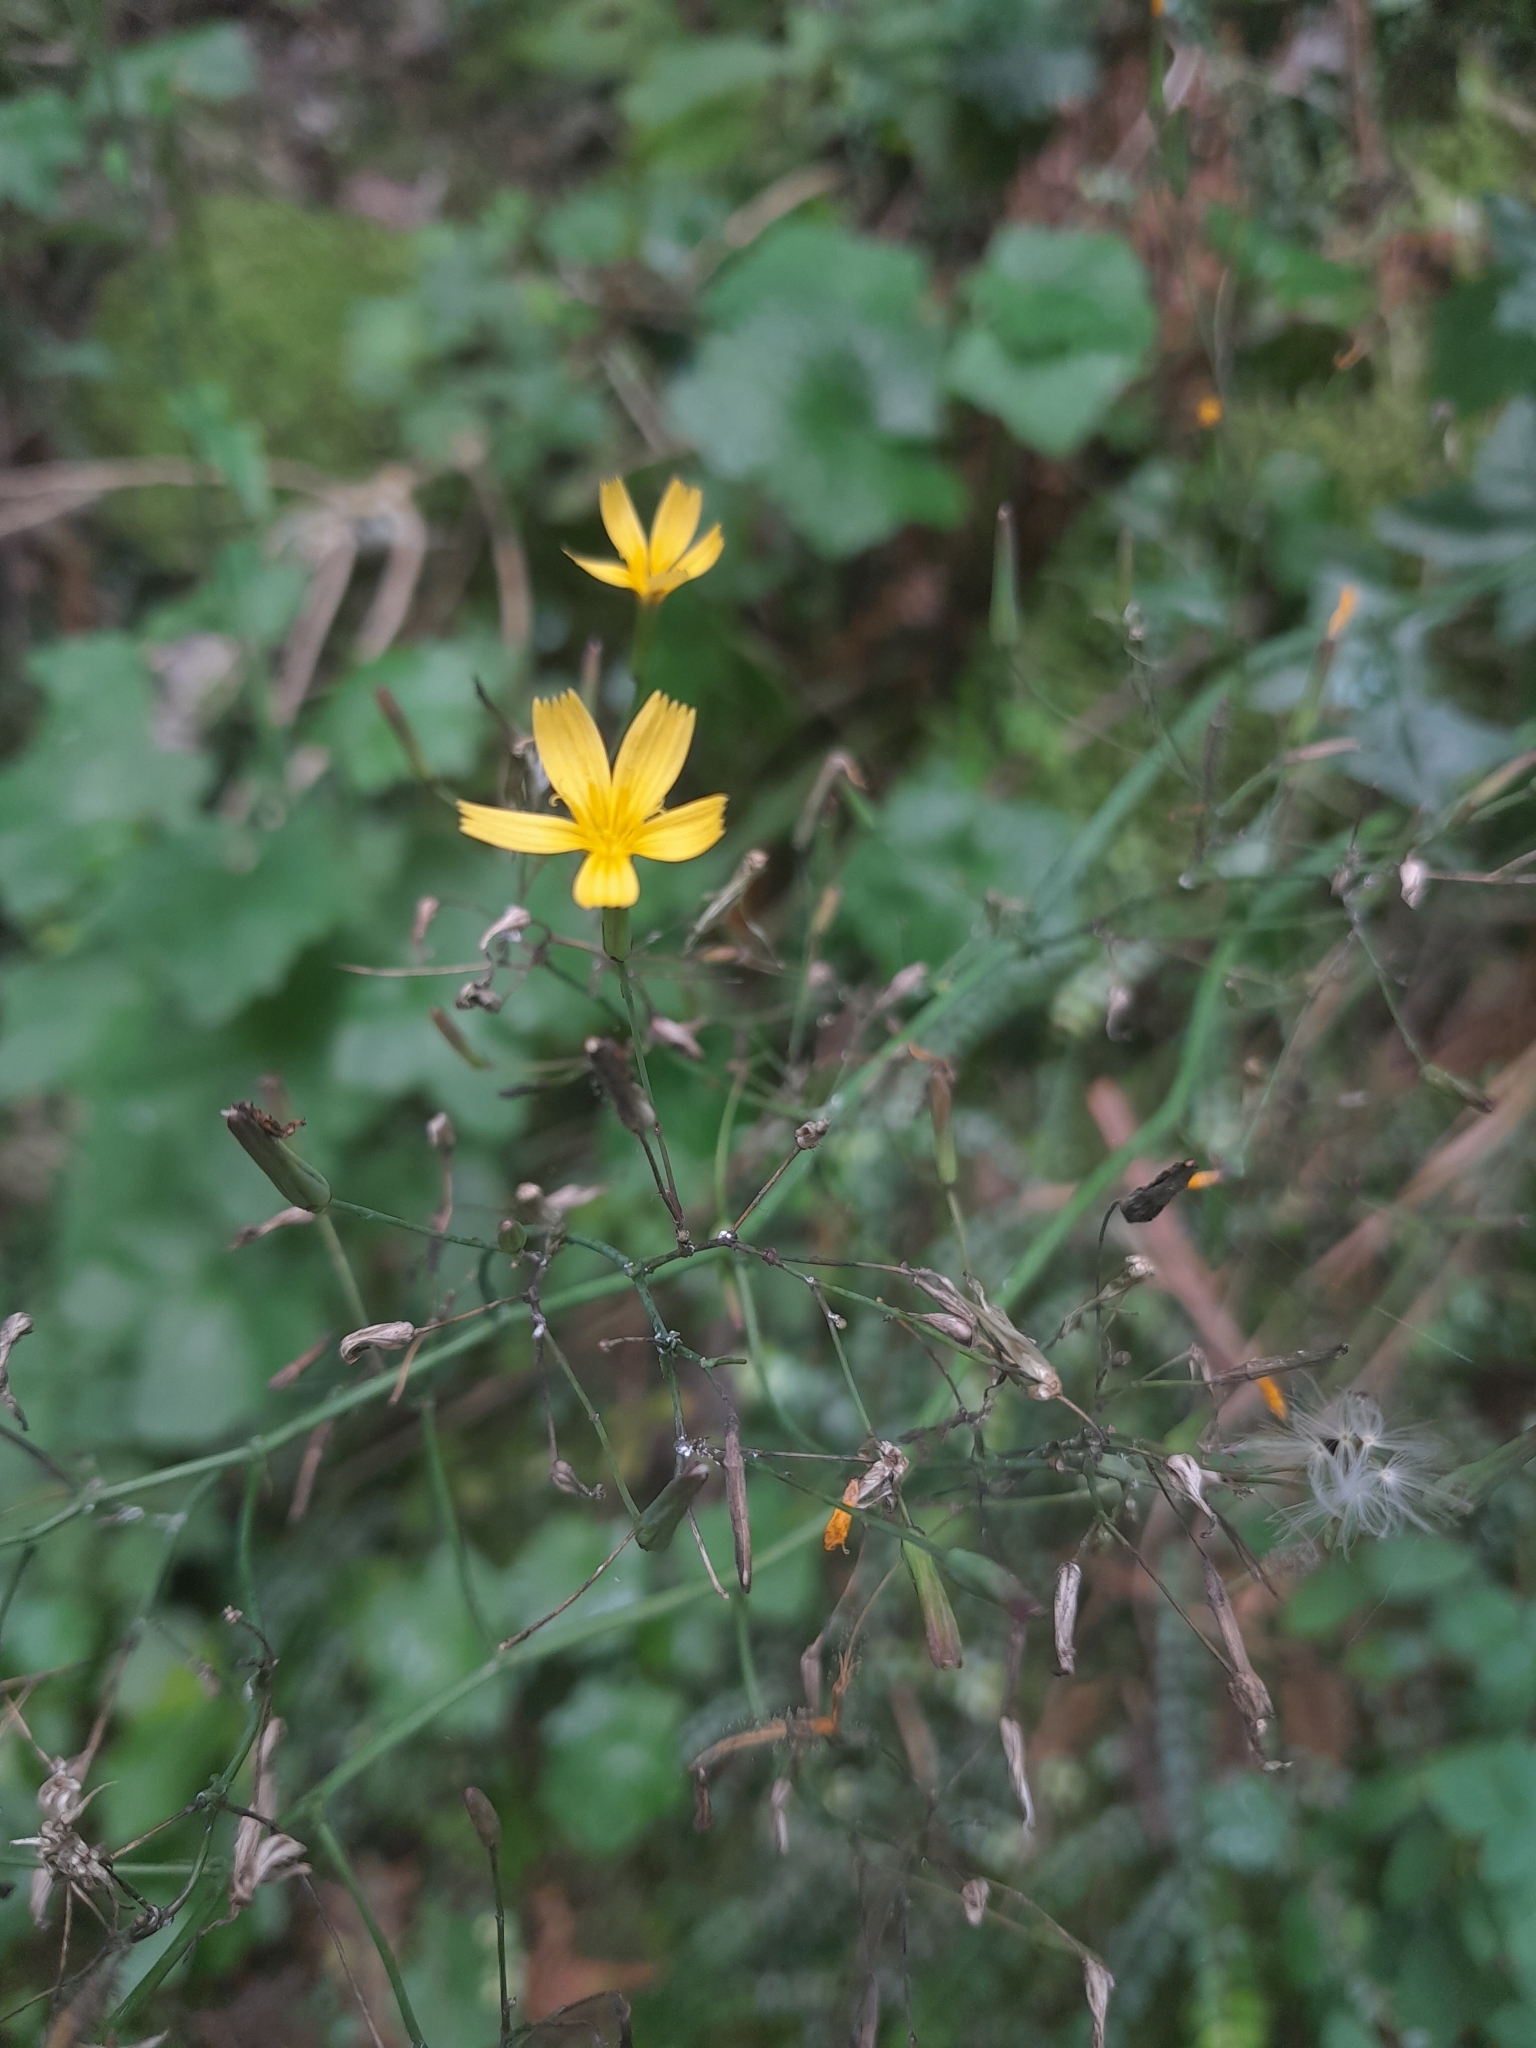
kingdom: Plantae
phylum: Tracheophyta
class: Magnoliopsida
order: Asterales
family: Asteraceae
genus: Mycelis
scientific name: Mycelis muralis
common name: Wall lettuce
